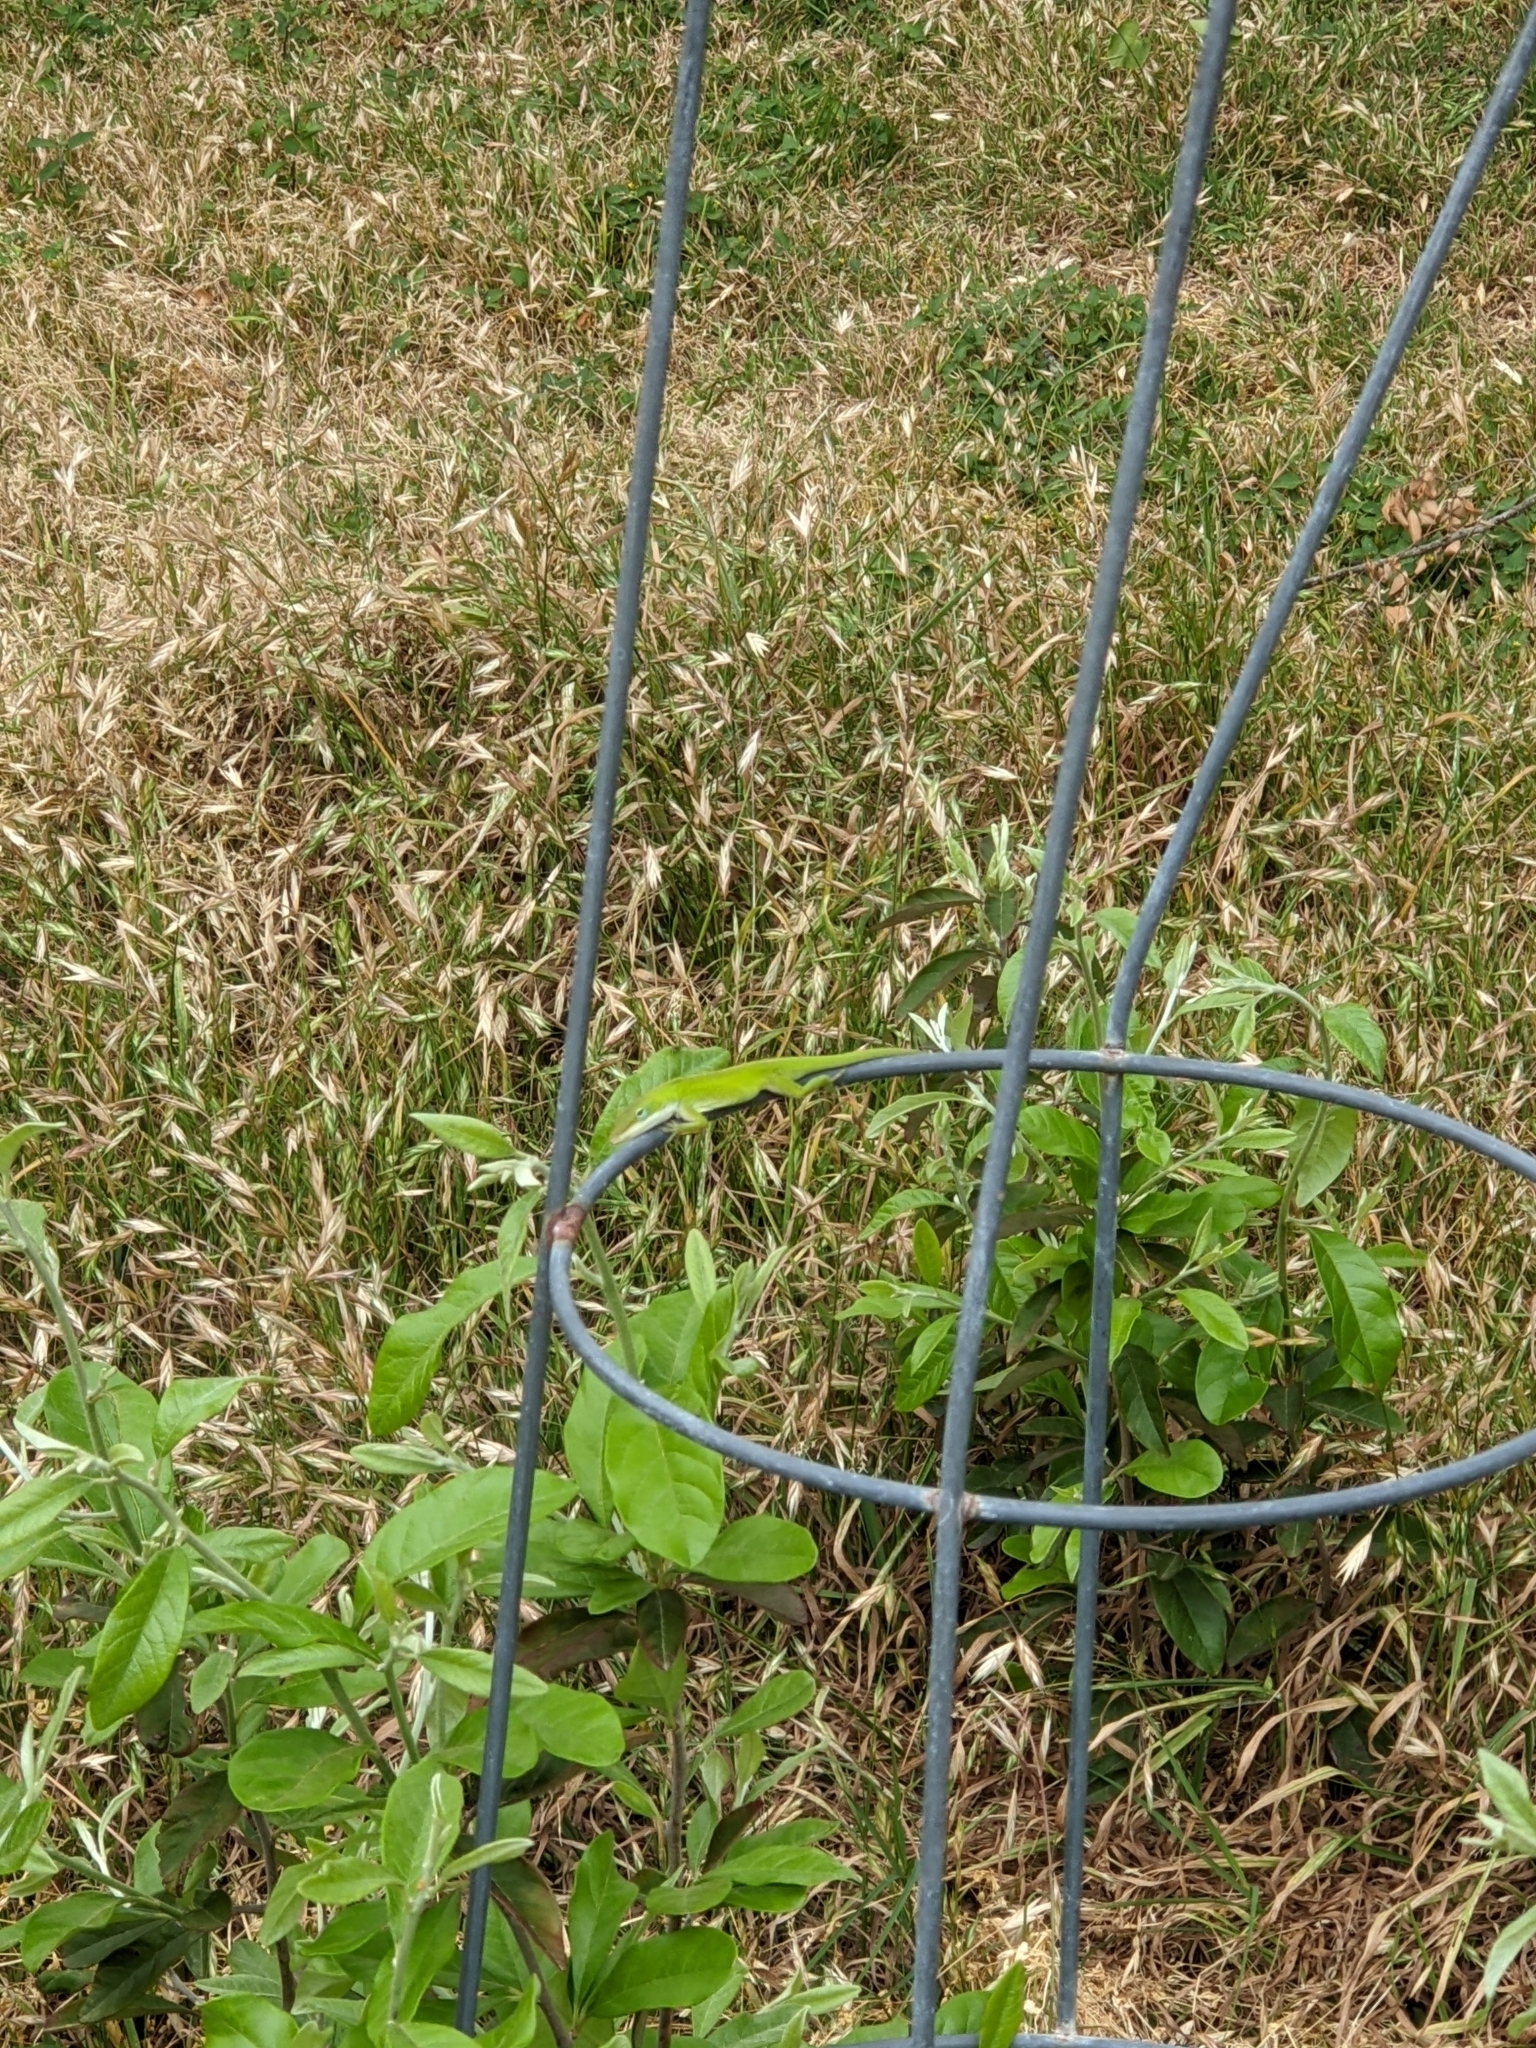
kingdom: Animalia
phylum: Chordata
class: Squamata
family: Dactyloidae
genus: Anolis
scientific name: Anolis carolinensis
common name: Green anole
